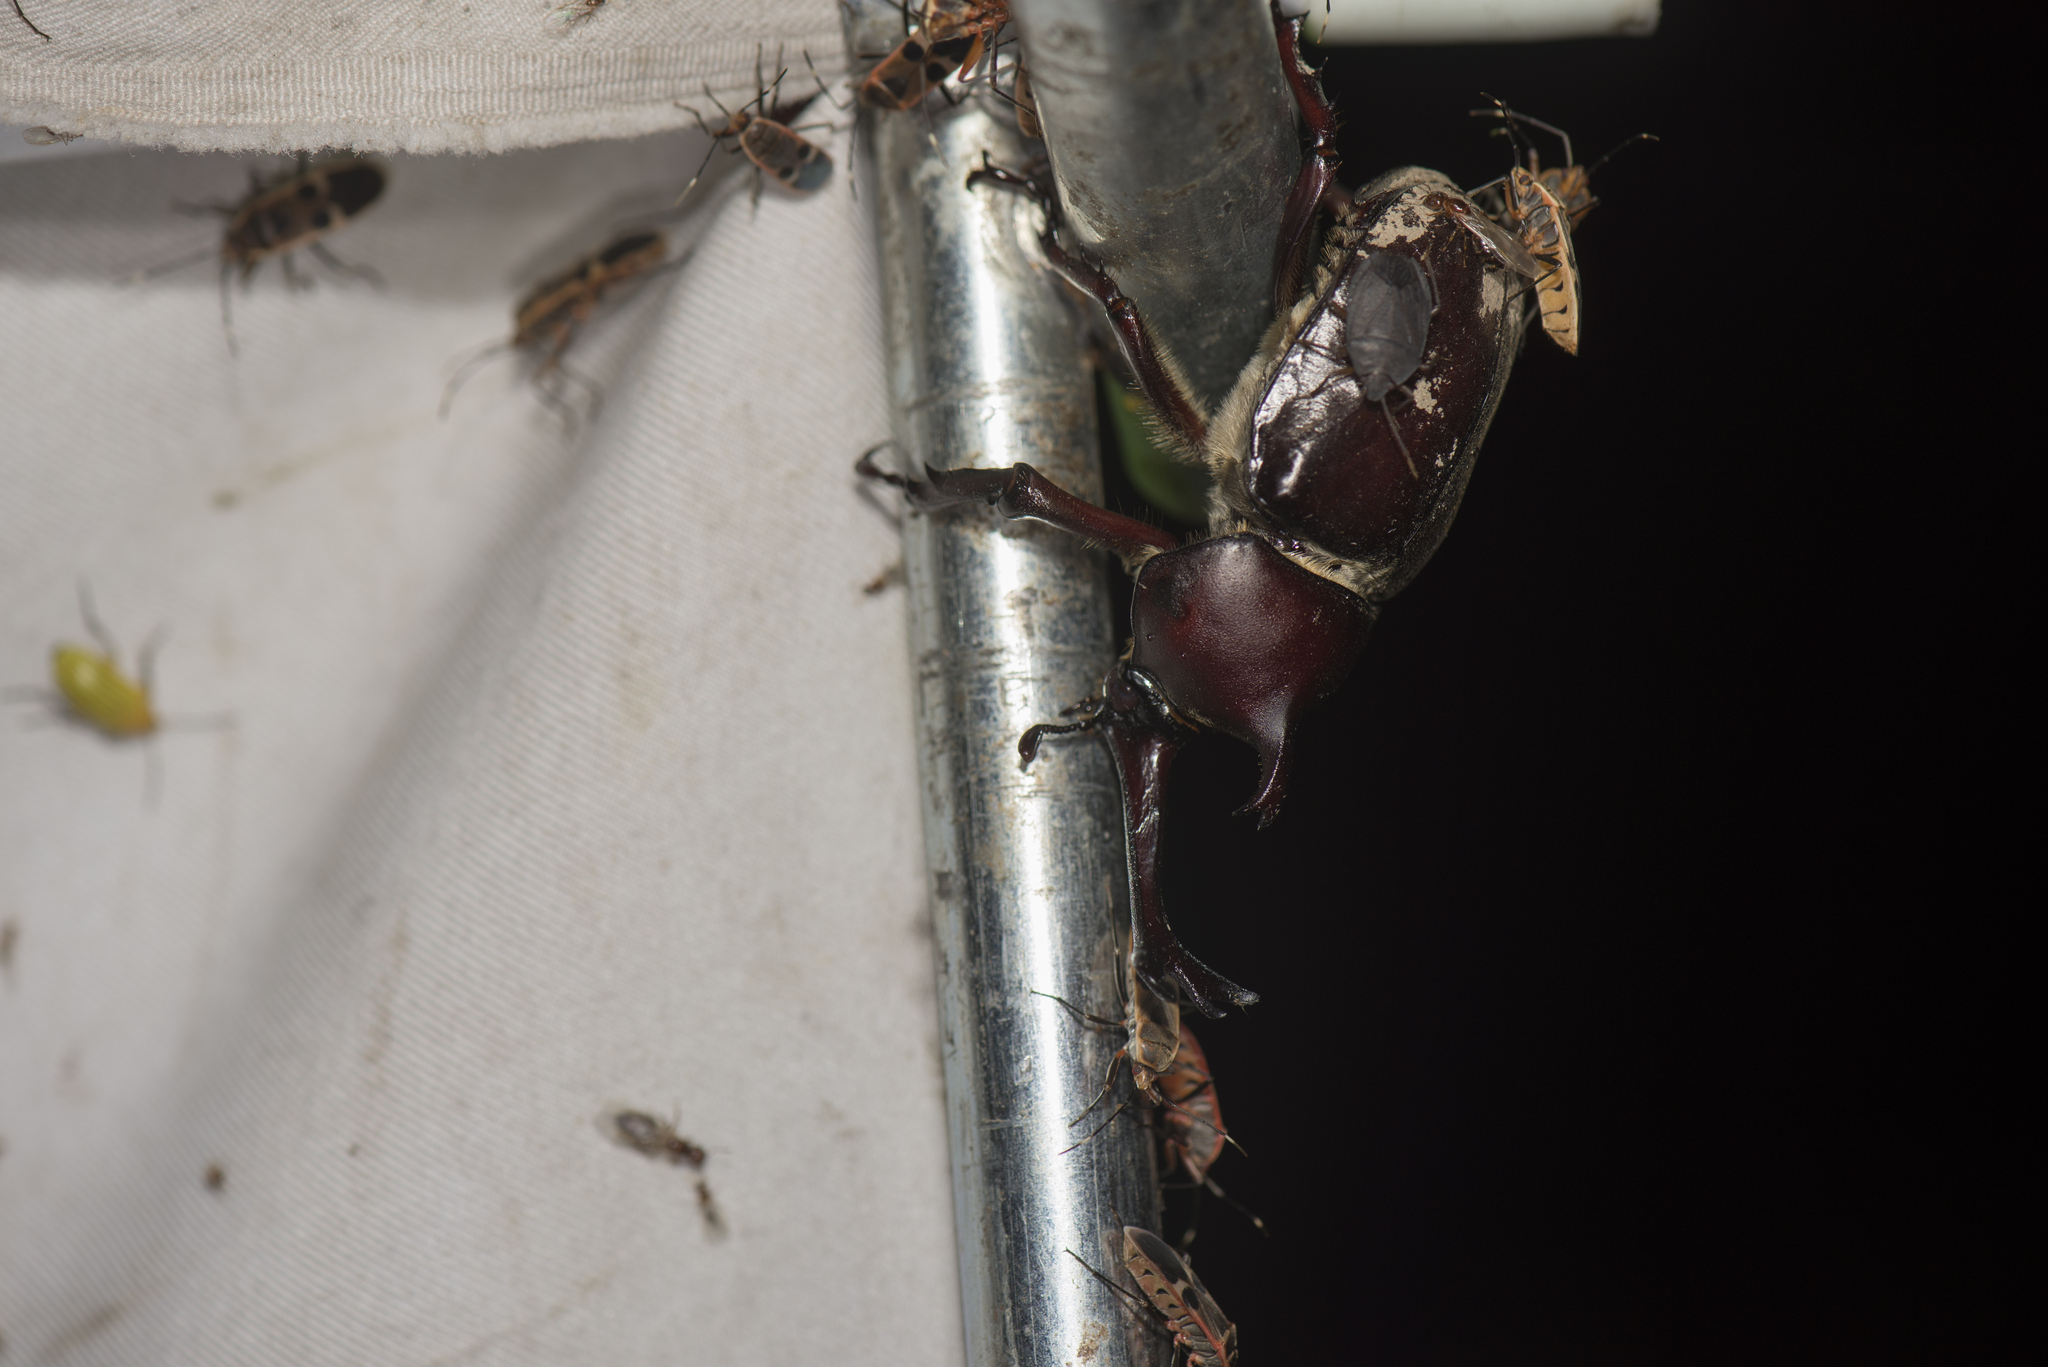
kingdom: Animalia
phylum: Arthropoda
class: Insecta
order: Coleoptera
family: Scarabaeidae
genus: Trypoxylus
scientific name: Trypoxylus dichotomus
